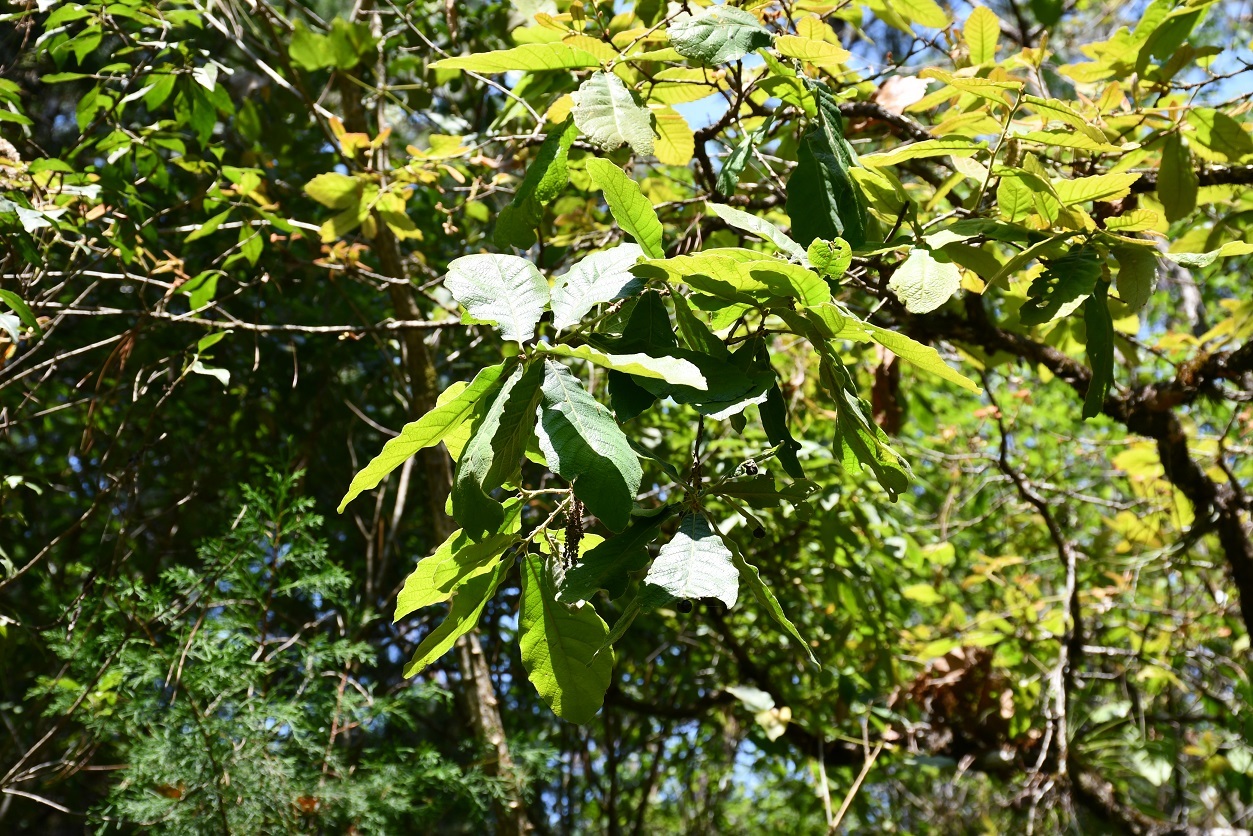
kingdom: Plantae
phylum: Tracheophyta
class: Magnoliopsida
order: Fagales
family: Fagaceae
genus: Quercus
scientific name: Quercus peduncularis
